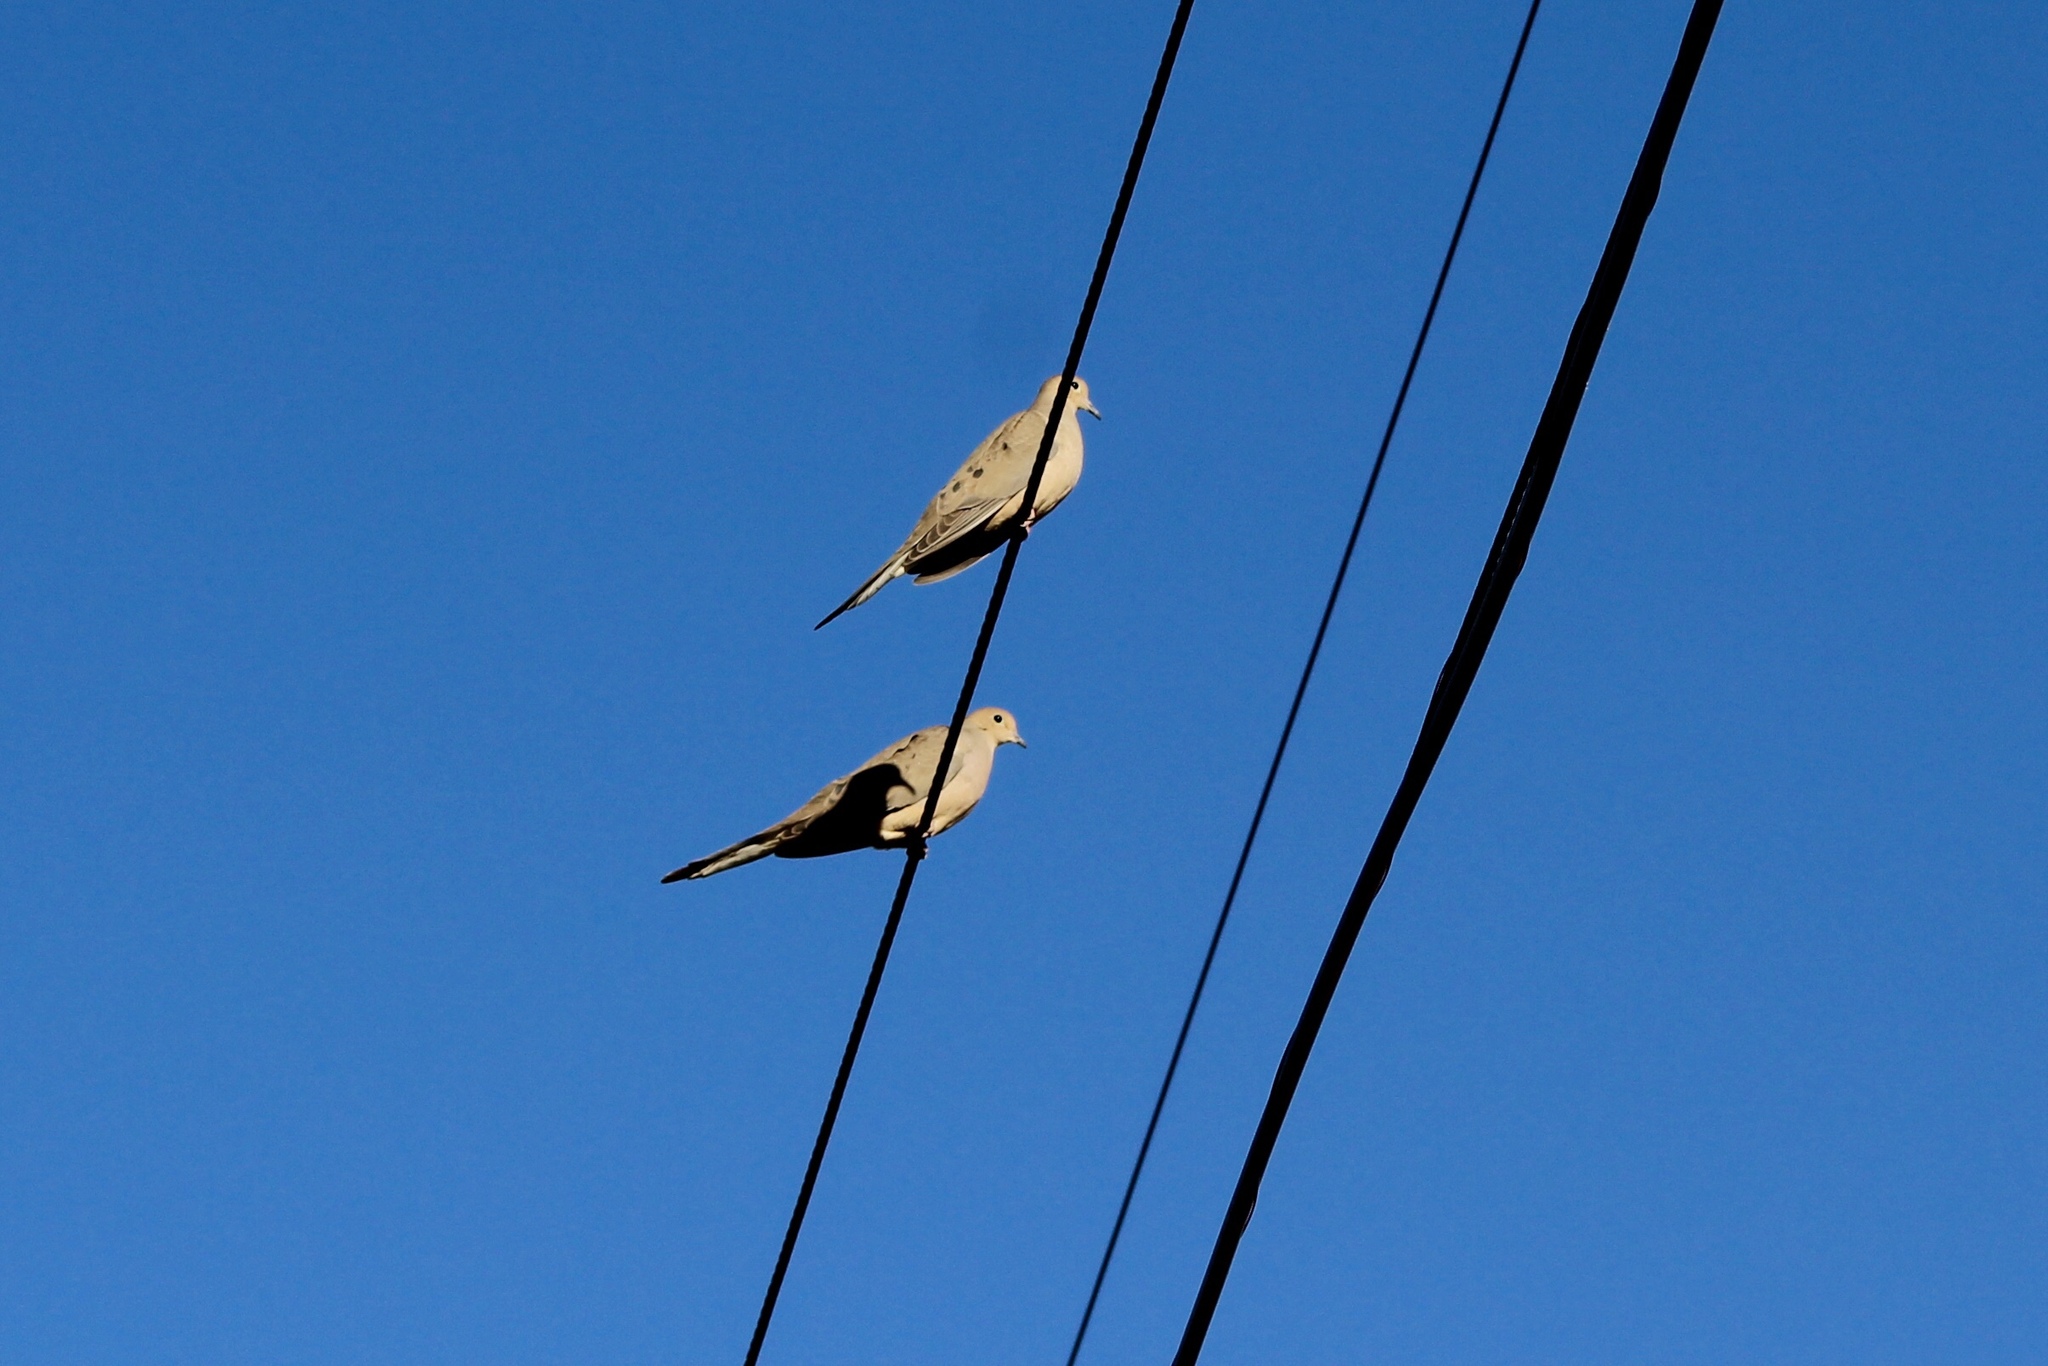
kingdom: Animalia
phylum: Chordata
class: Aves
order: Columbiformes
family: Columbidae
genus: Zenaida
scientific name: Zenaida macroura
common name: Mourning dove
